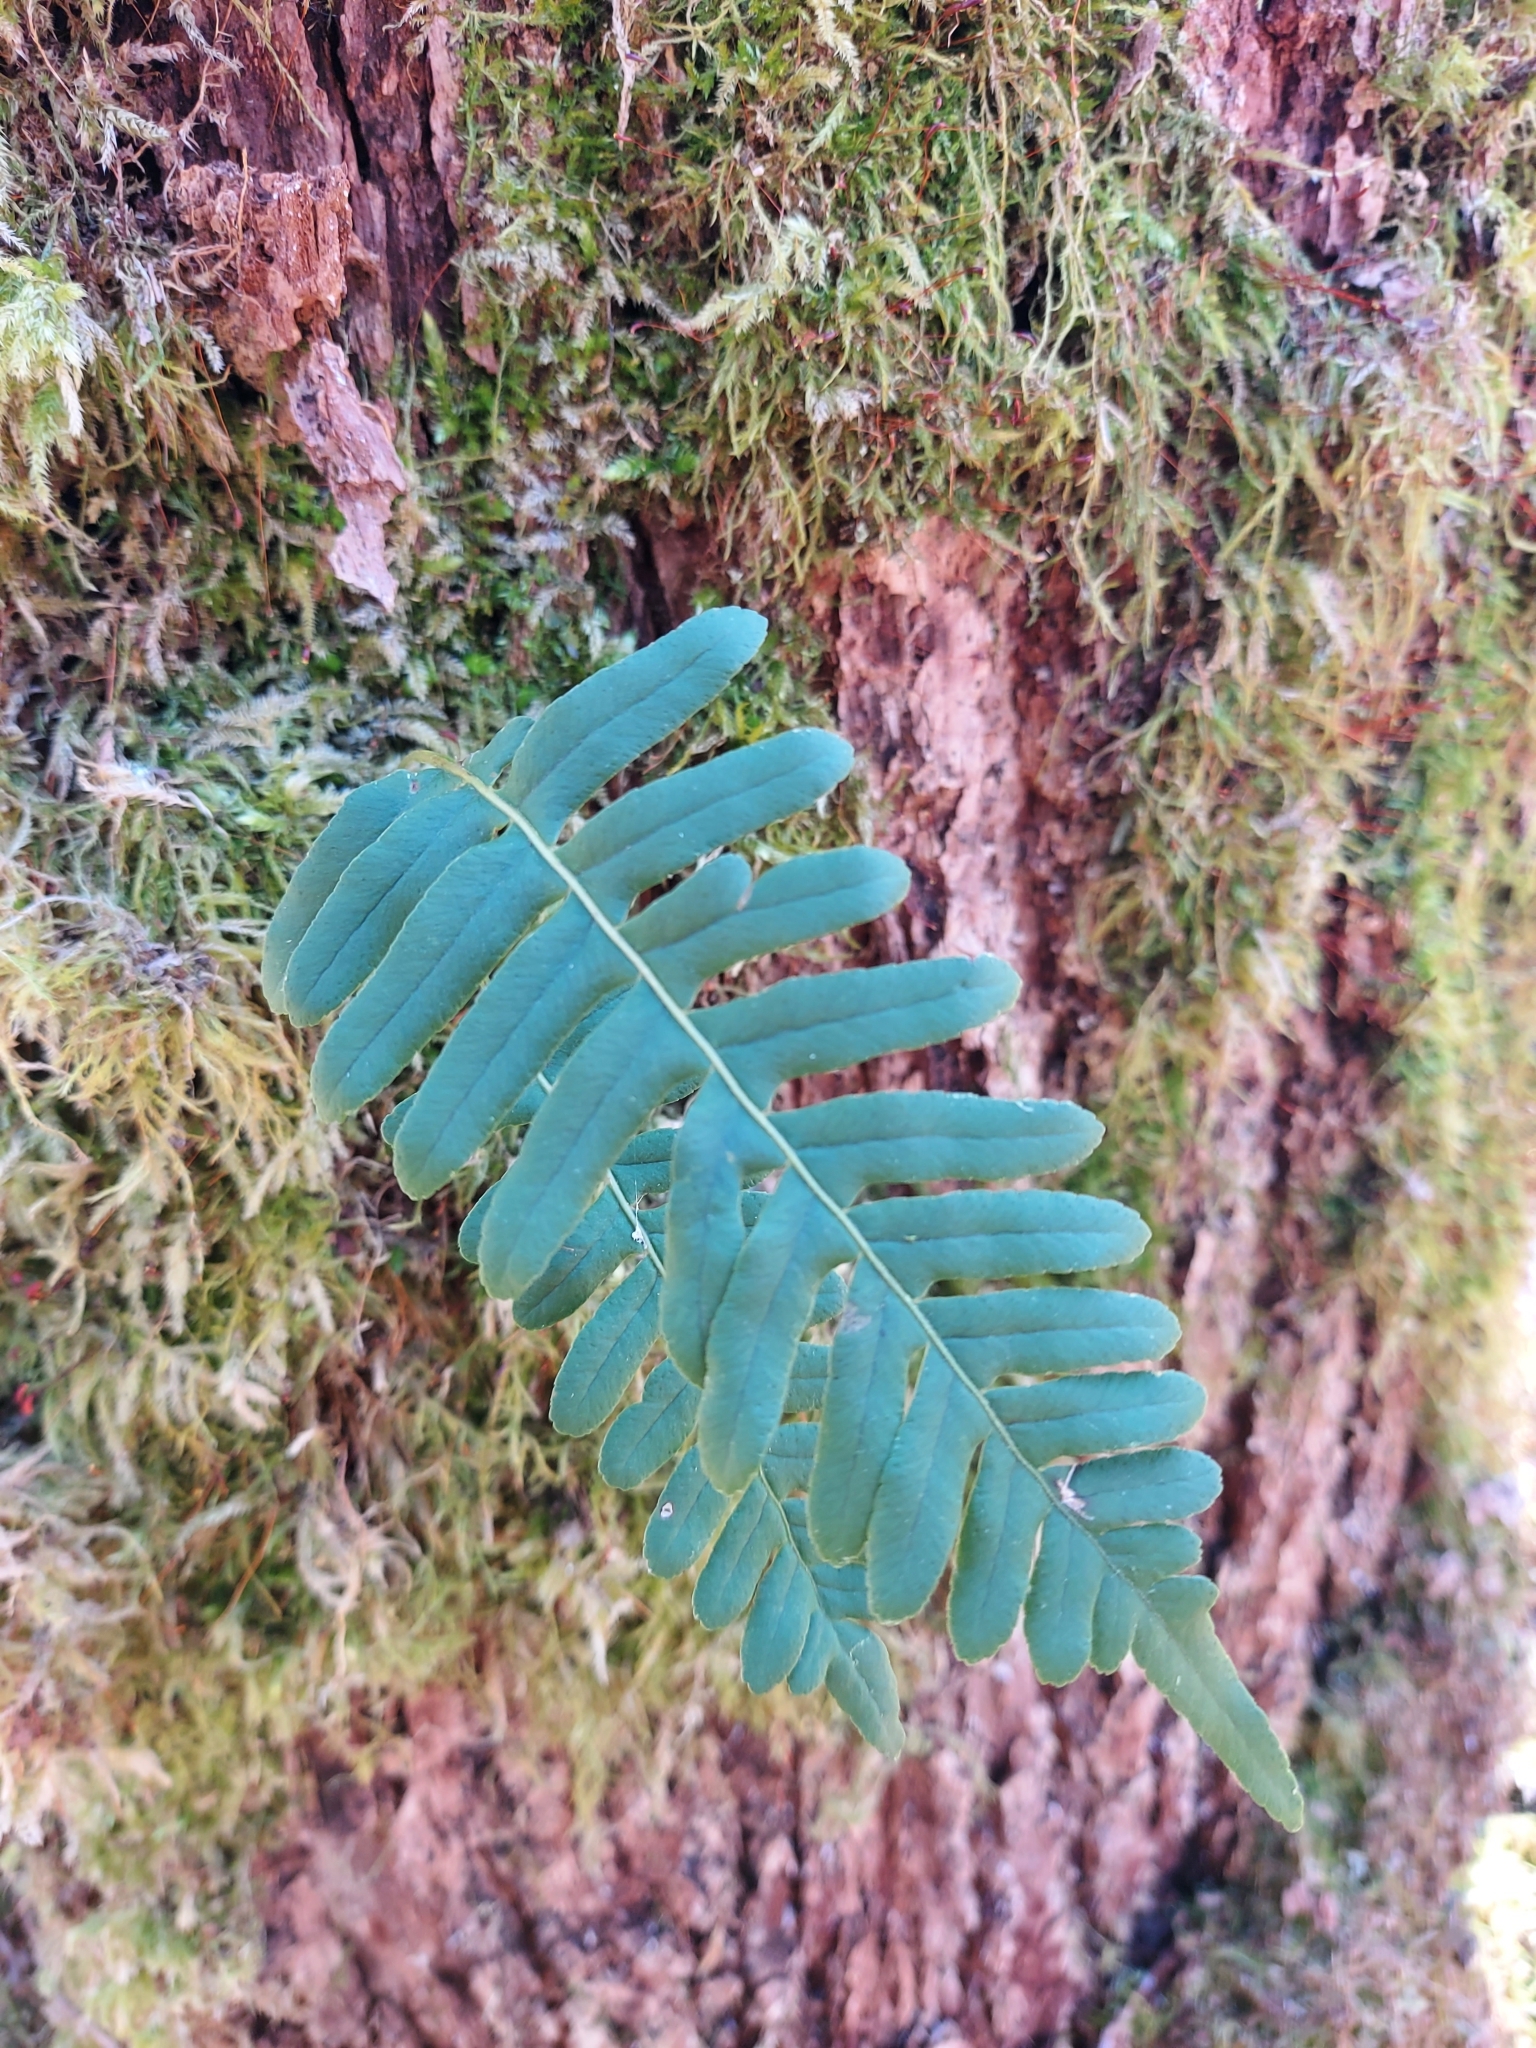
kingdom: Plantae
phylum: Tracheophyta
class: Polypodiopsida
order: Polypodiales
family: Polypodiaceae
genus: Polypodium
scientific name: Polypodium vulgare
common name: Common polypody
